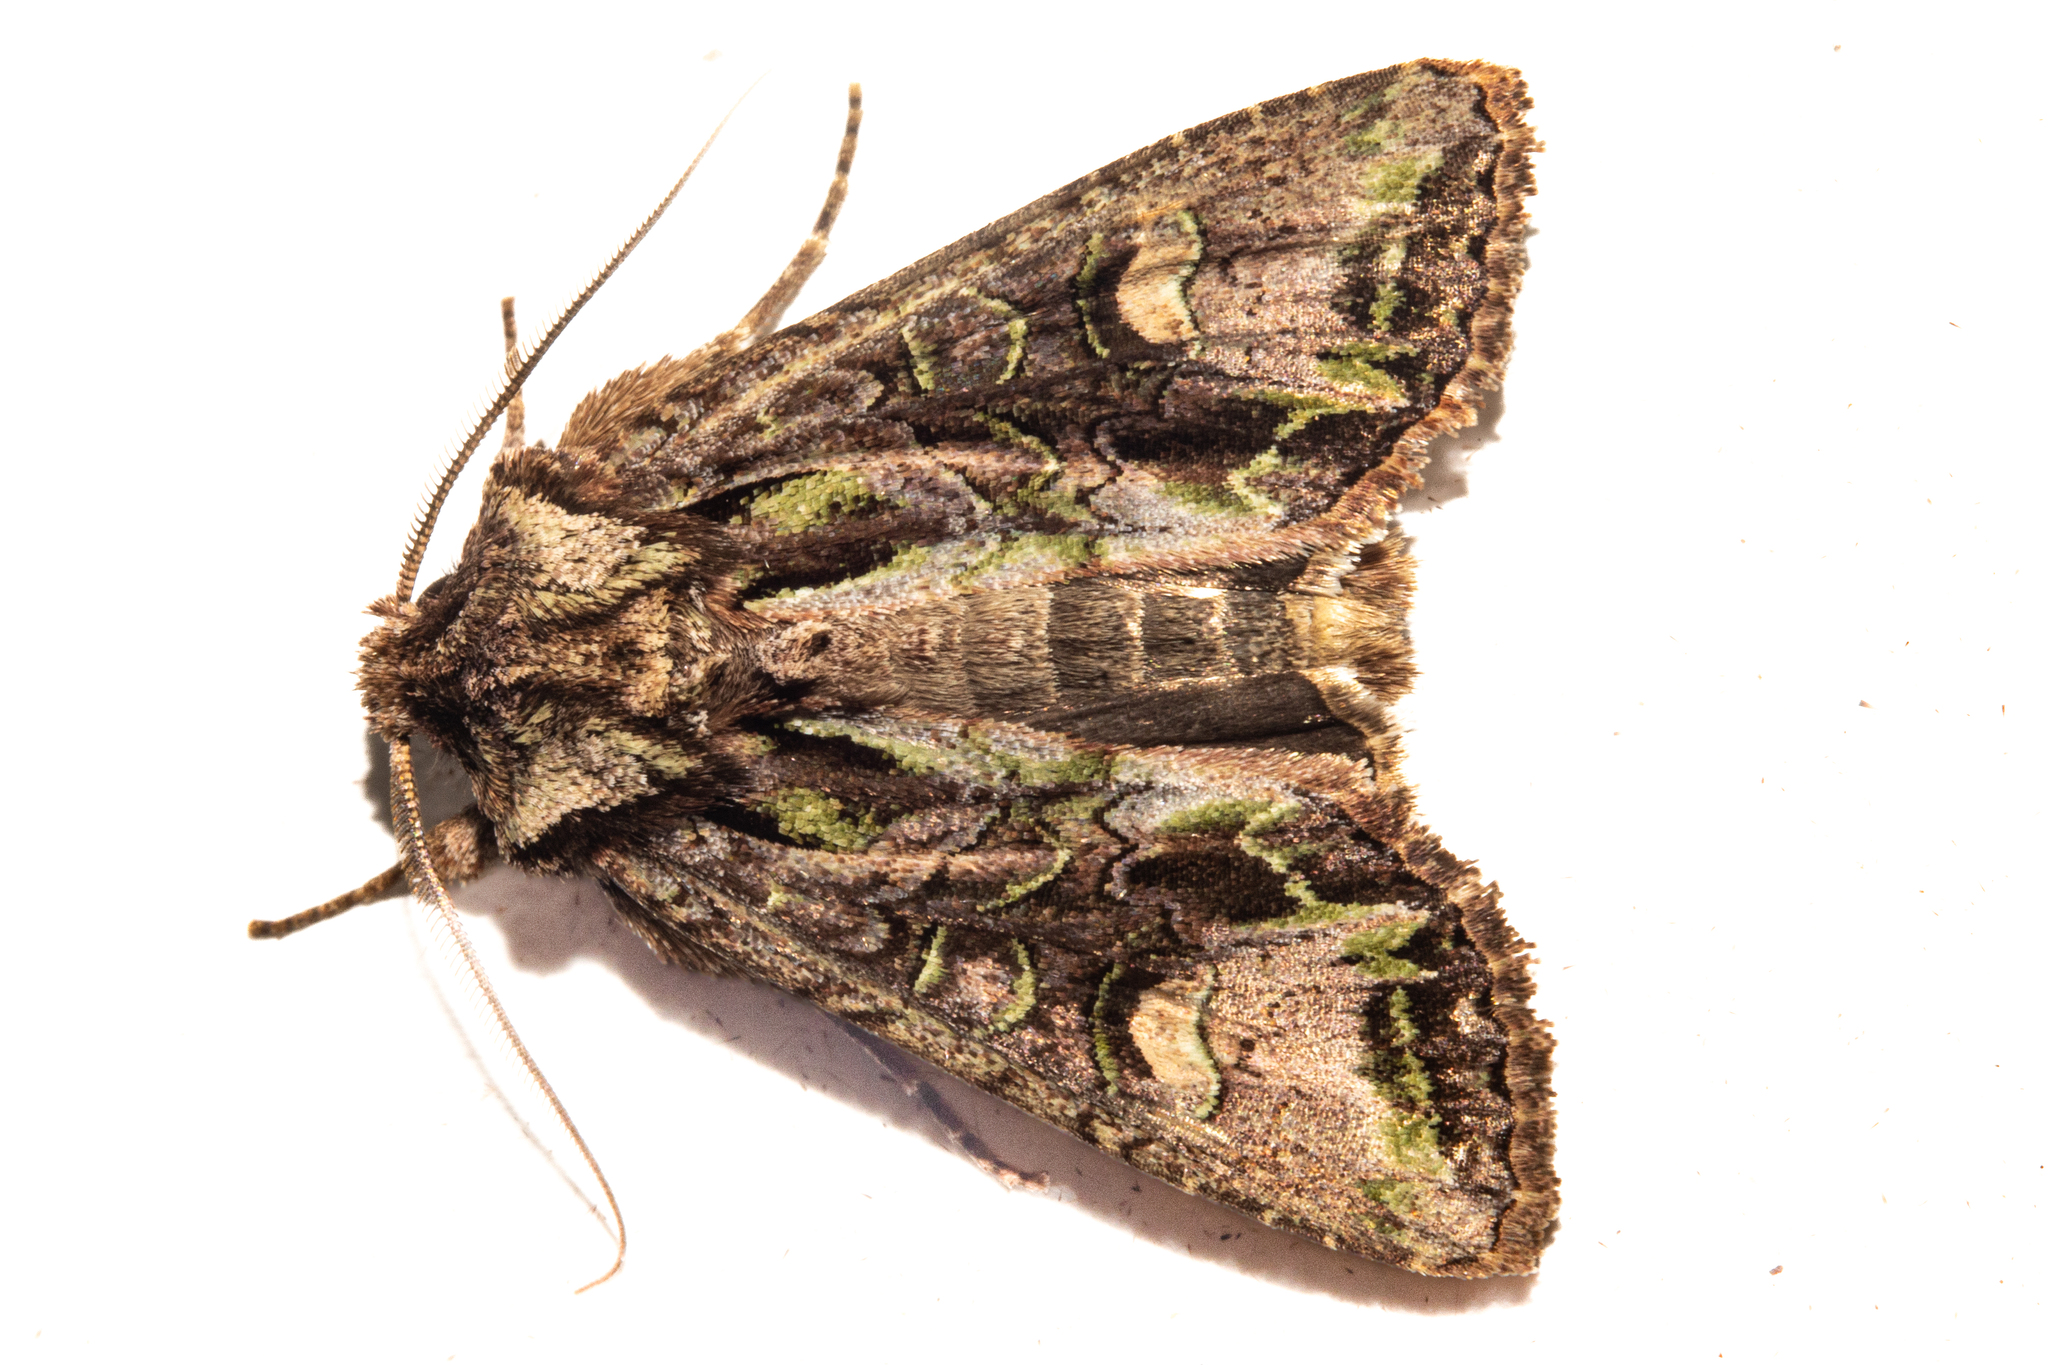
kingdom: Animalia
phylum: Arthropoda
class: Insecta
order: Lepidoptera
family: Noctuidae
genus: Ichneutica
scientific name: Ichneutica insignis
